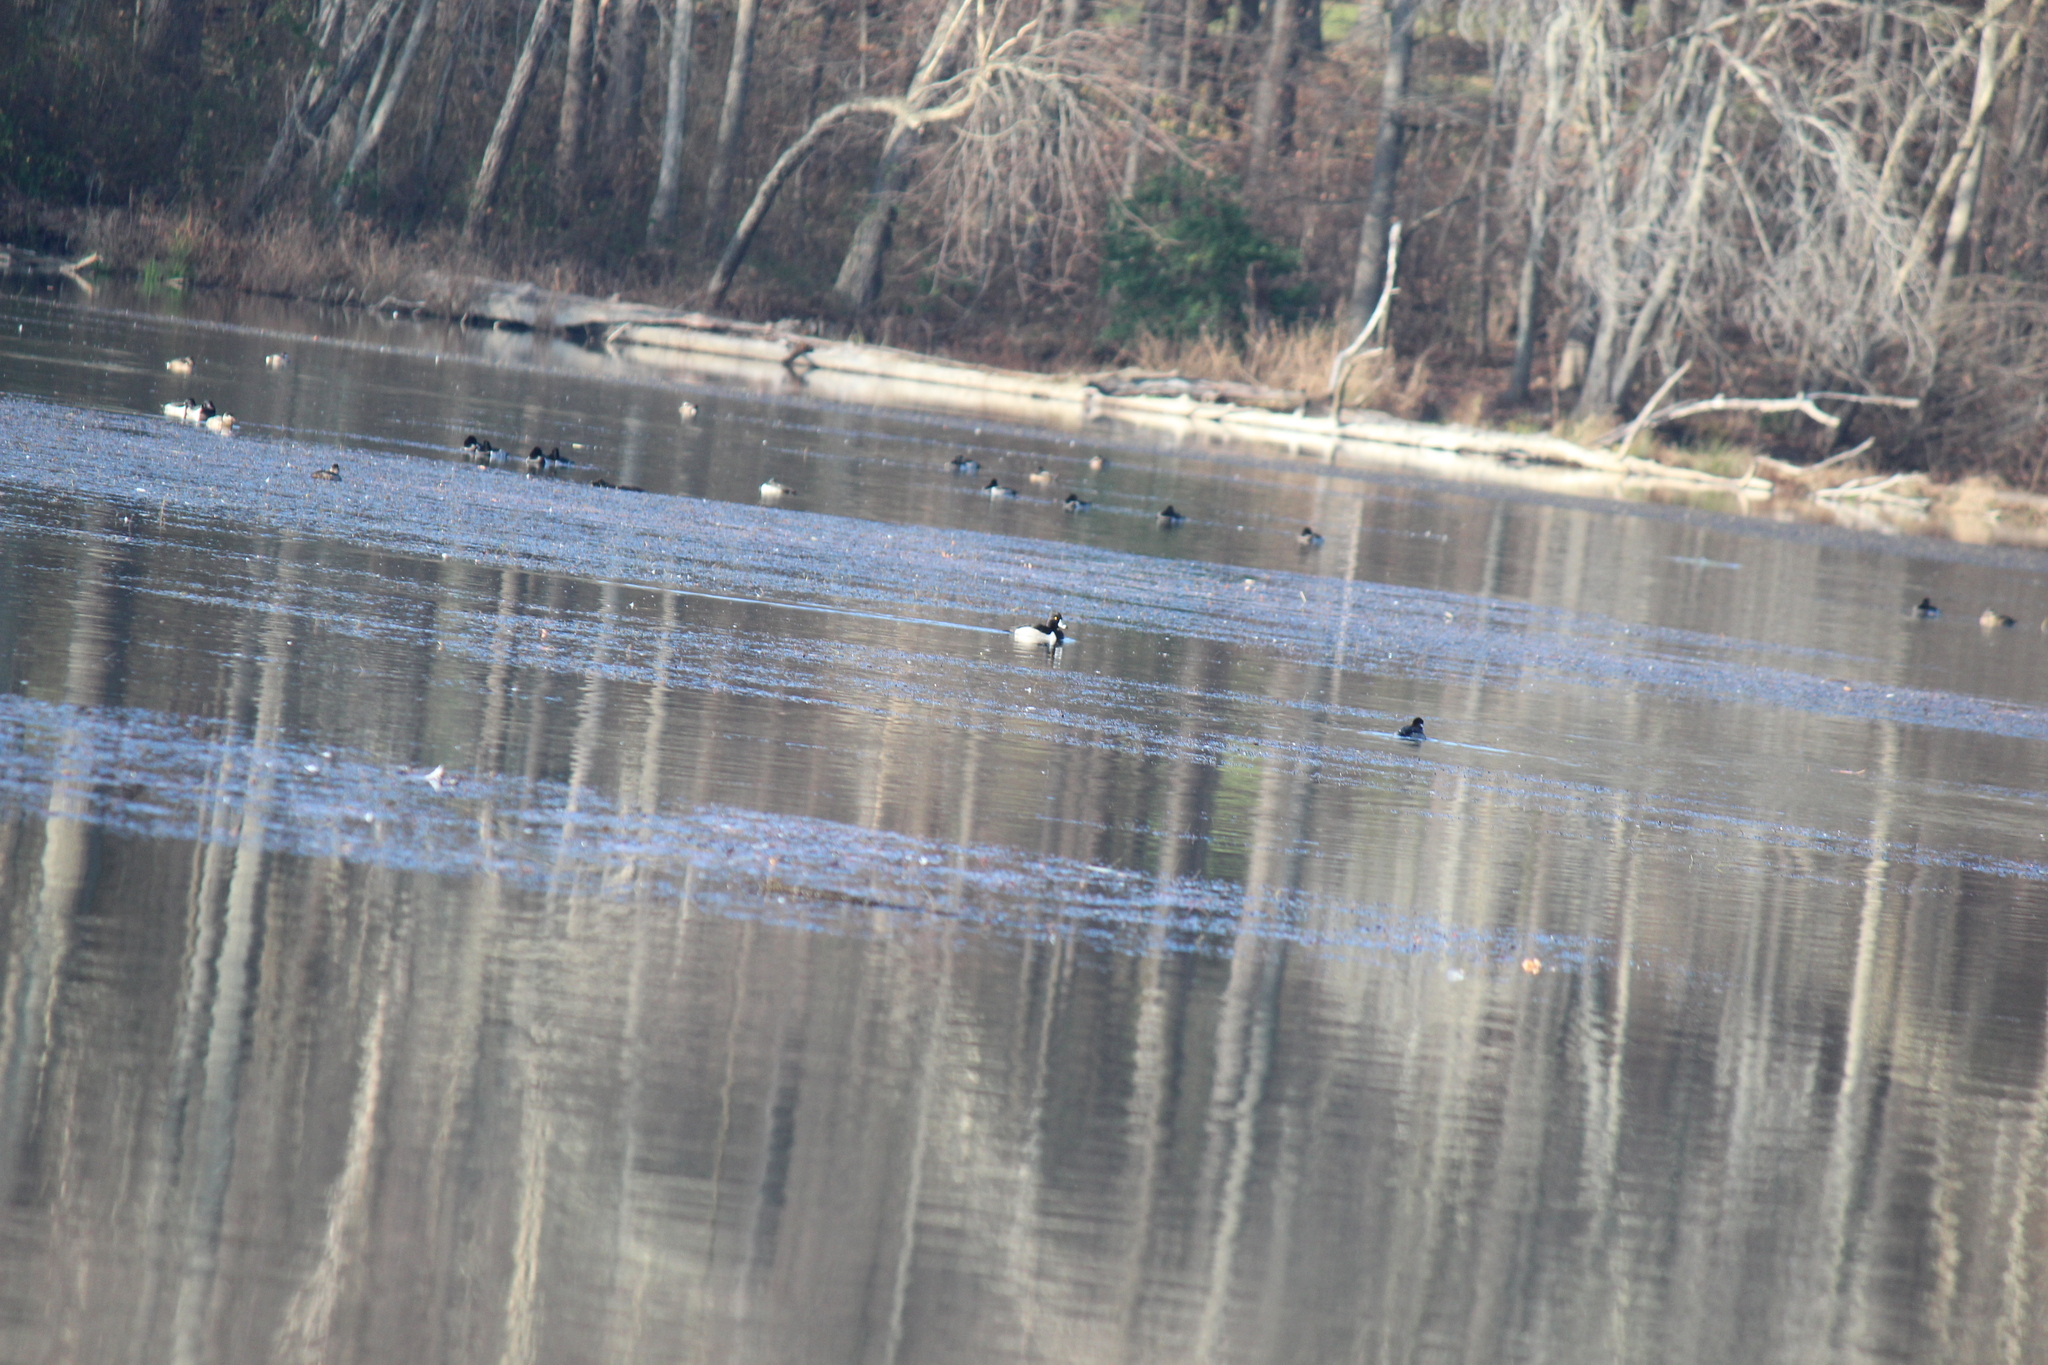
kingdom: Animalia
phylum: Chordata
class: Aves
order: Anseriformes
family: Anatidae
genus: Aythya
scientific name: Aythya collaris
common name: Ring-necked duck
